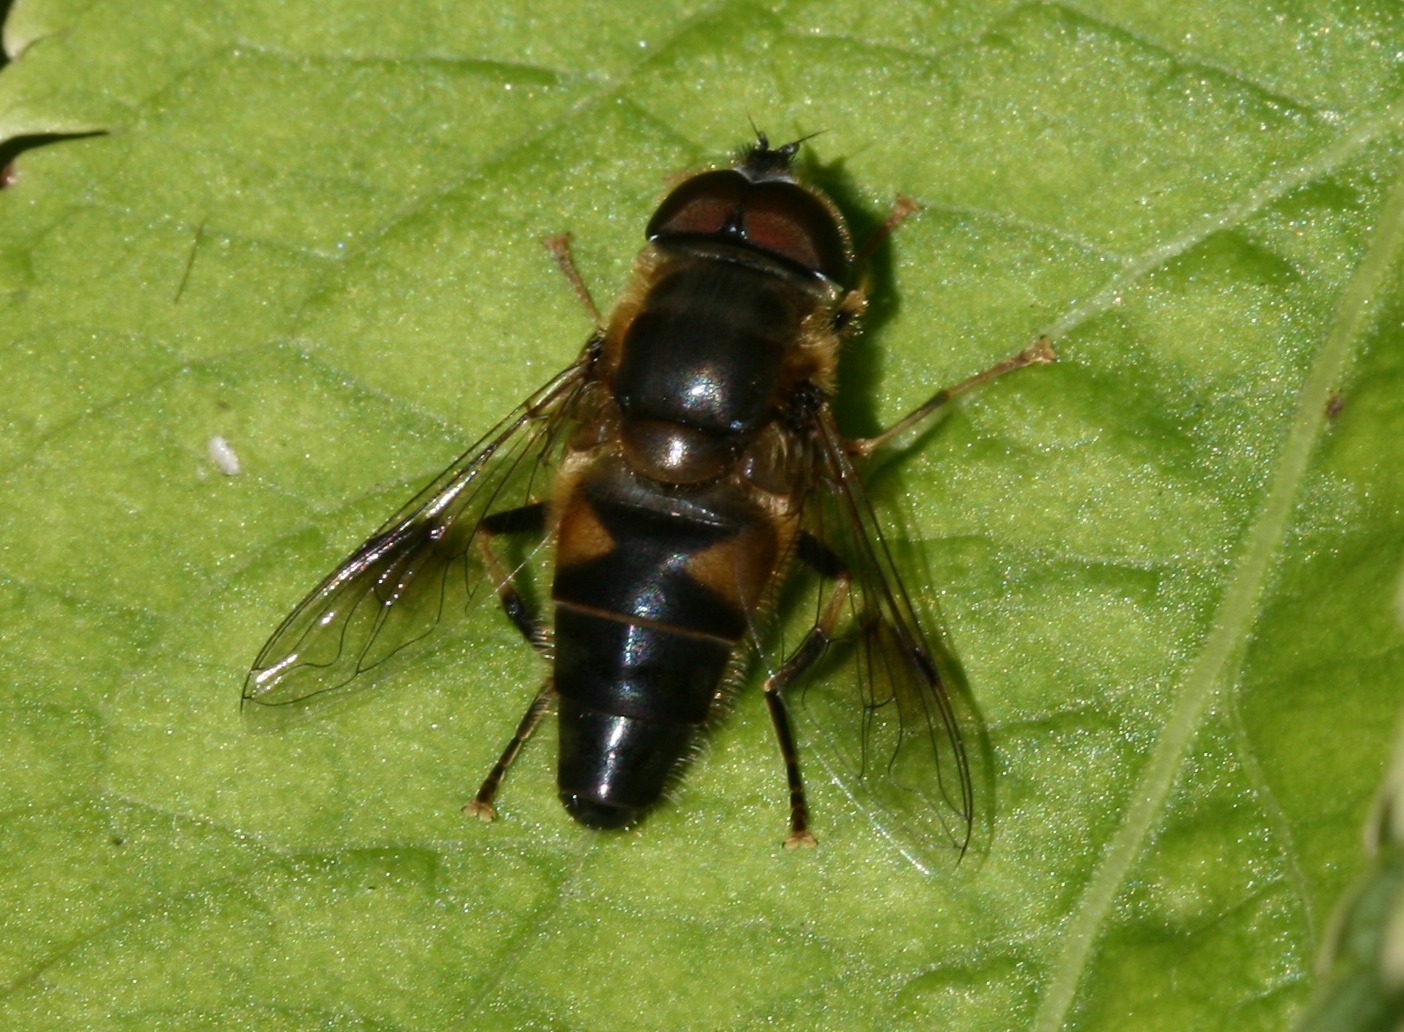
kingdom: Animalia
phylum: Arthropoda
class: Insecta
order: Diptera
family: Syrphidae
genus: Eristalis
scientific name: Eristalis pertinax
